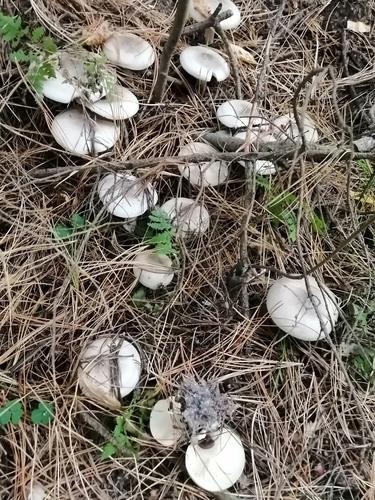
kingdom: Fungi
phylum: Basidiomycota
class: Agaricomycetes
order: Agaricales
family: Tricholomataceae
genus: Clitocybe
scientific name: Clitocybe nebularis
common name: Clouded agaric
